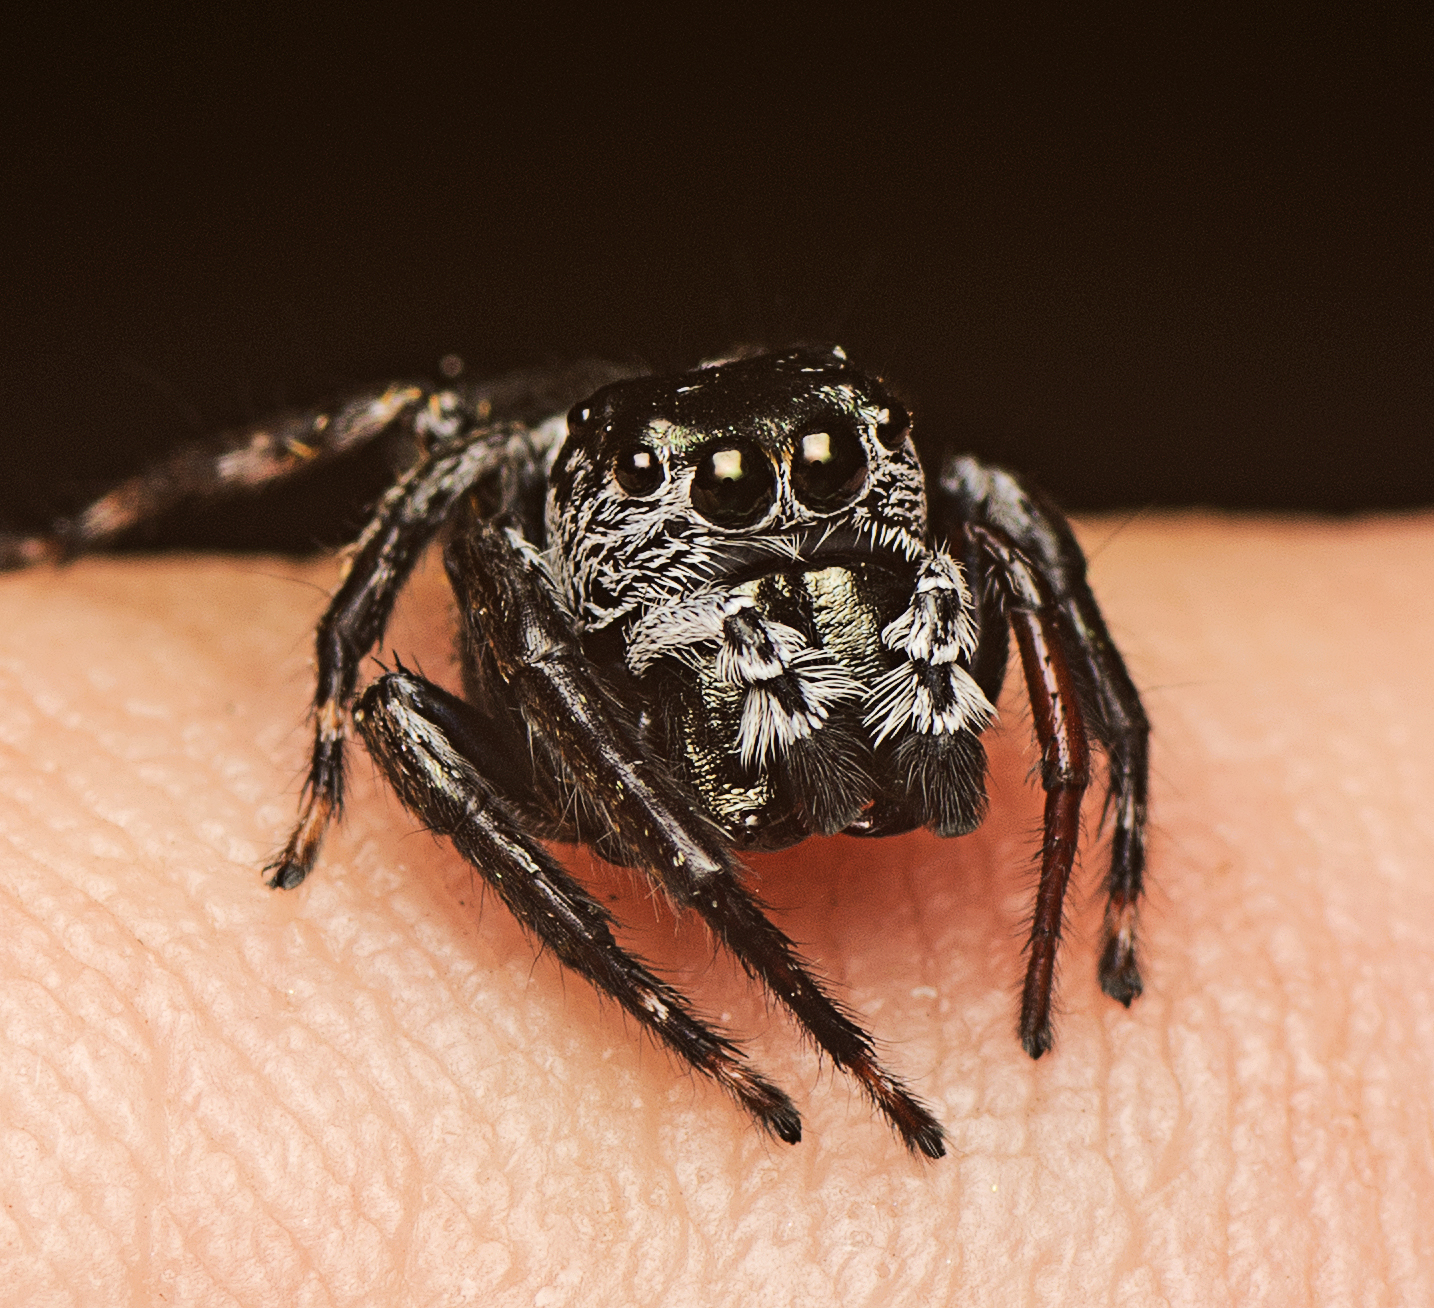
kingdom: Animalia
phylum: Arthropoda
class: Arachnida
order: Araneae
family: Salticidae
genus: Euryattus
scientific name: Euryattus bleekeri
